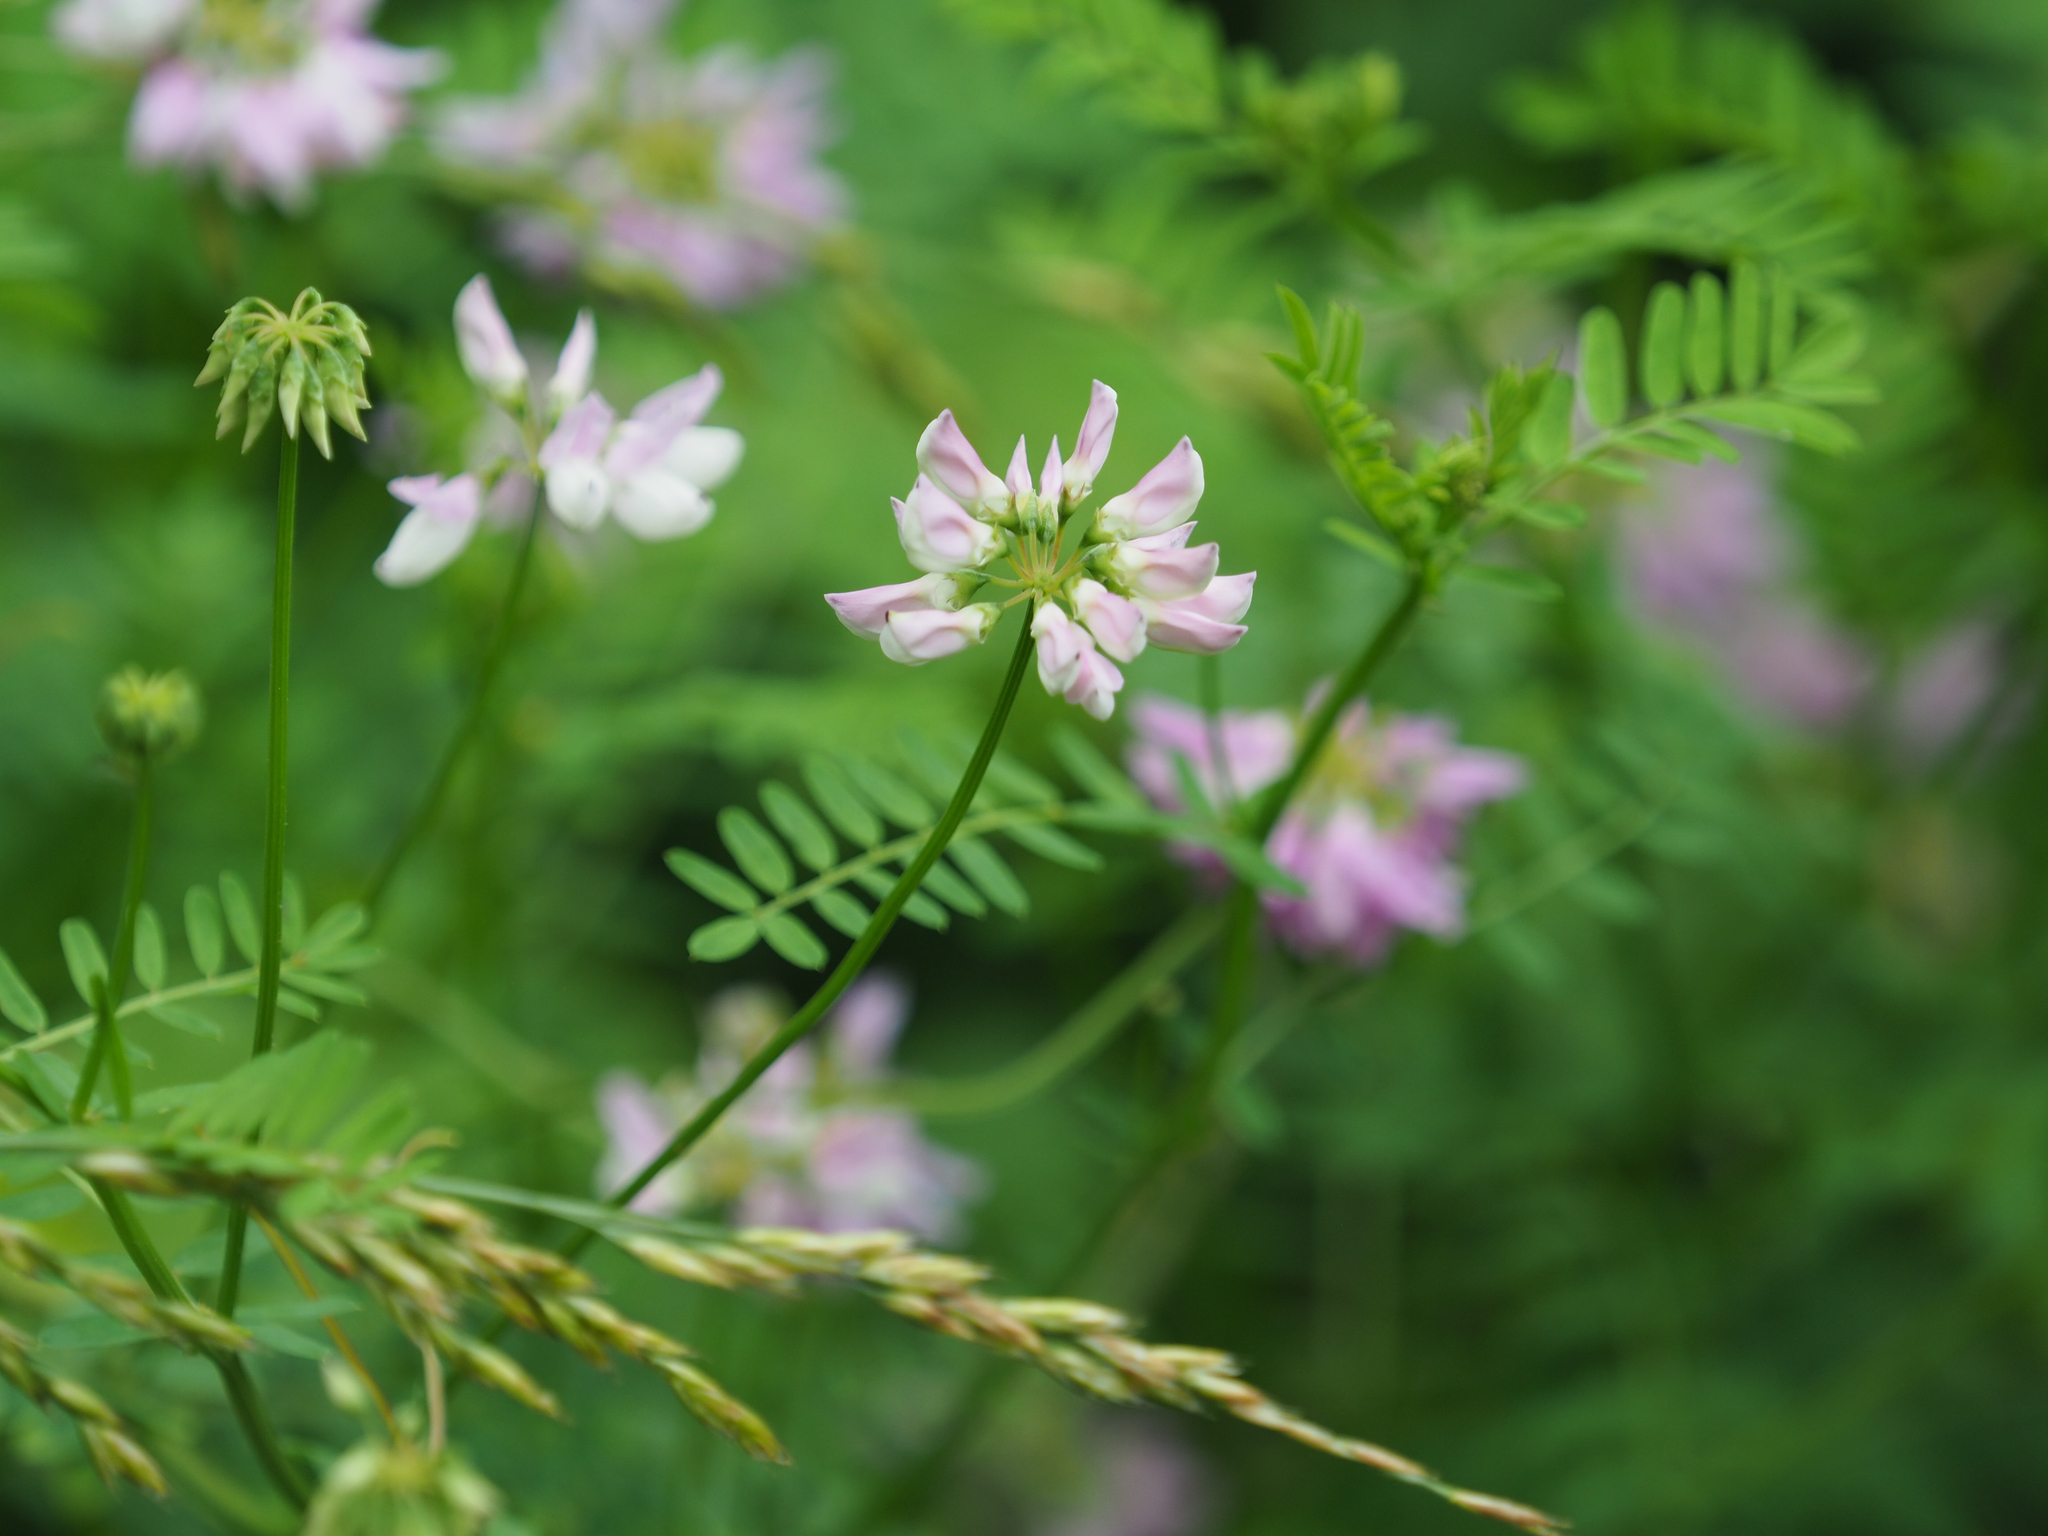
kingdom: Plantae
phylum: Tracheophyta
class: Magnoliopsida
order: Fabales
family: Fabaceae
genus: Coronilla
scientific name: Coronilla varia
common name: Crownvetch
